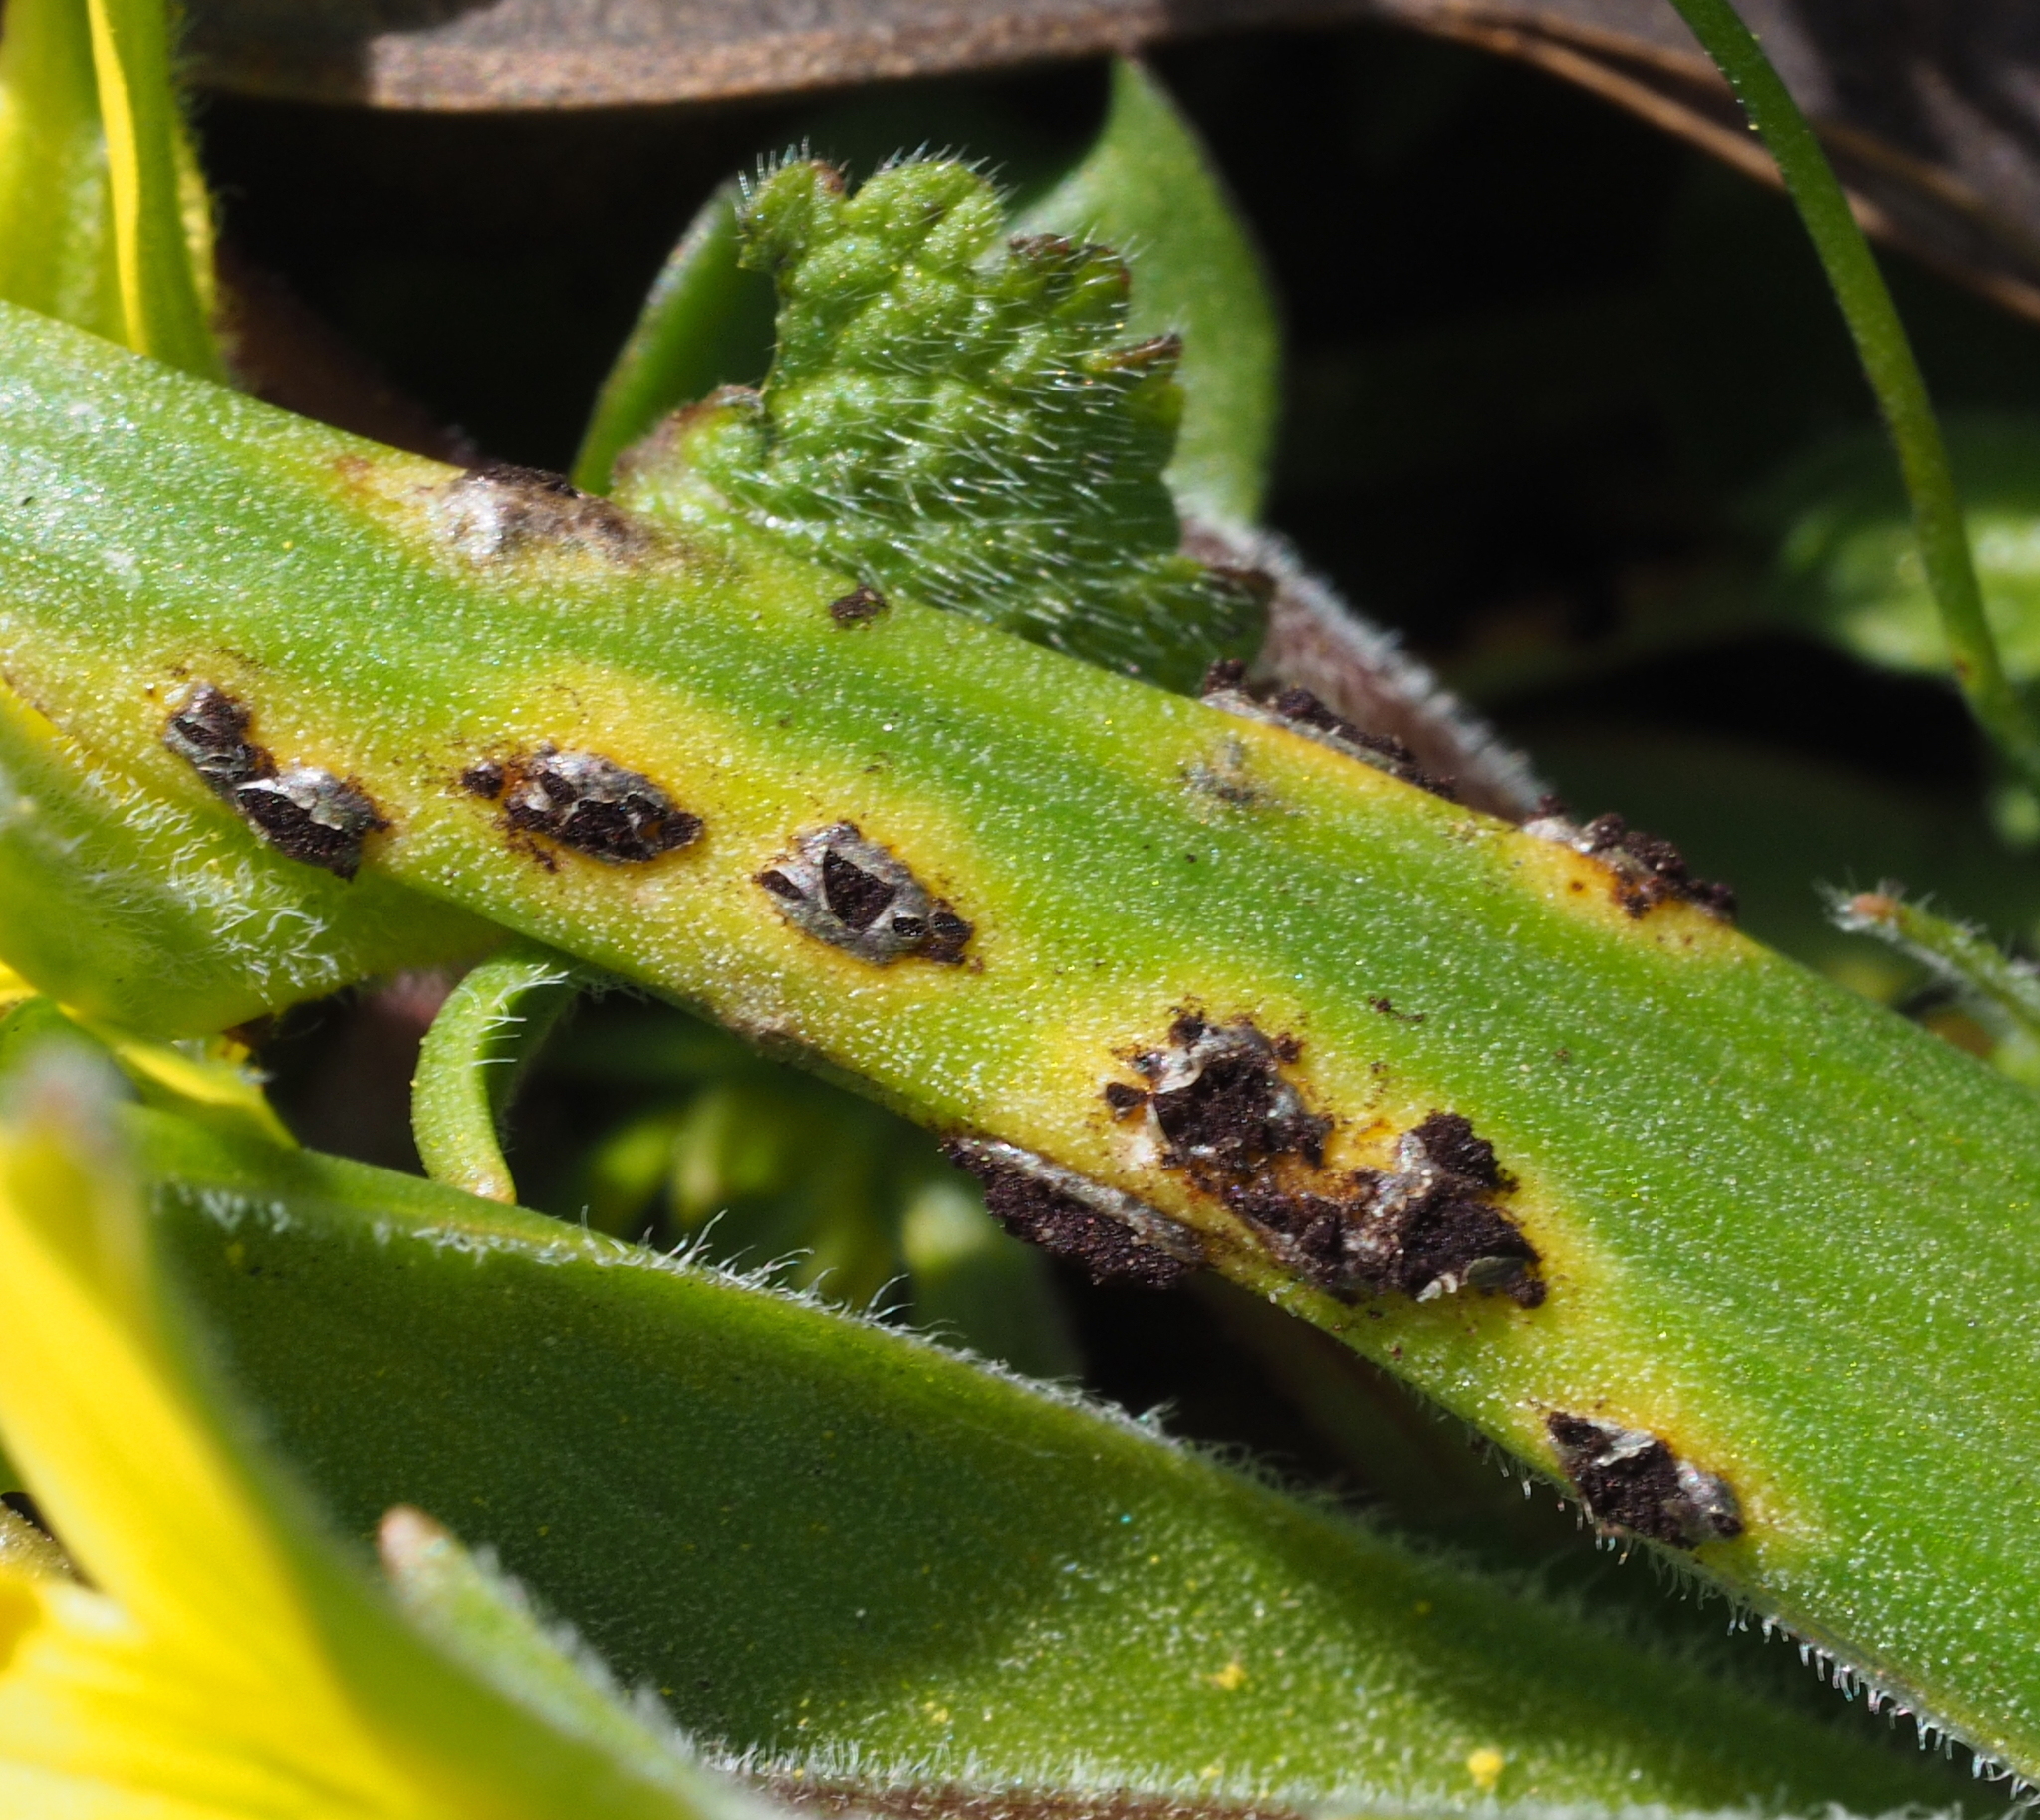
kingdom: Fungi
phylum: Basidiomycota
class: Pucciniomycetes
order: Pucciniales
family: Pucciniaceae
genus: Uromyces
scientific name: Uromyces acutatus
